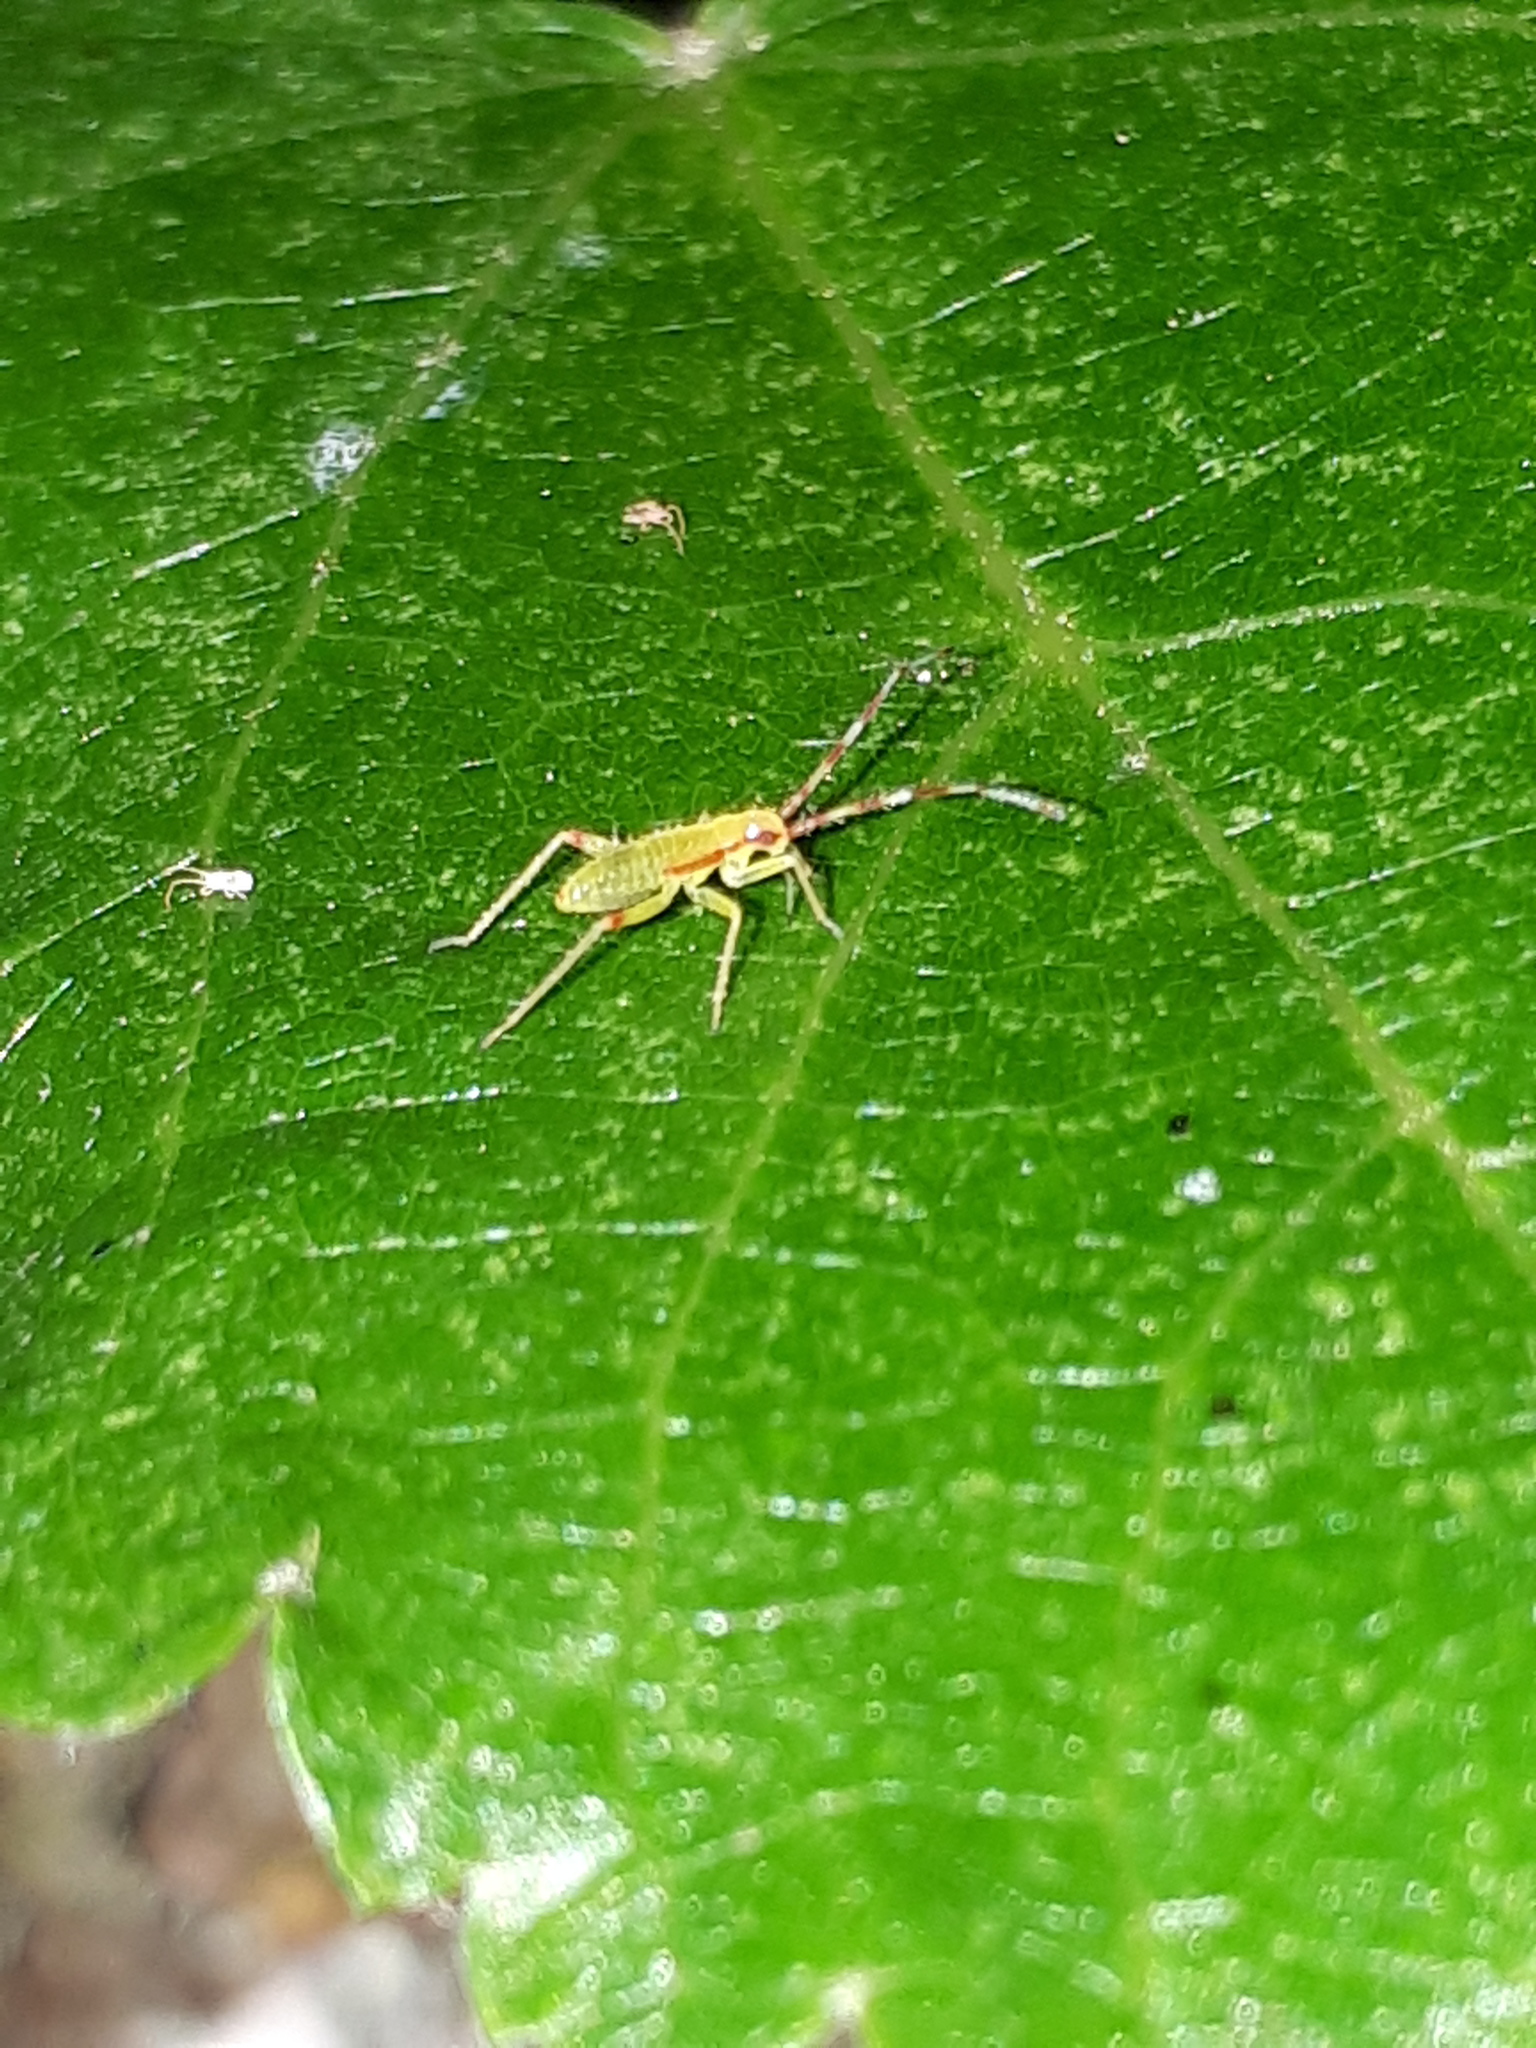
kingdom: Animalia
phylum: Arthropoda
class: Insecta
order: Hemiptera
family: Miridae
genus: Campyloneura
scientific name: Campyloneura virgula
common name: Predatory bug
